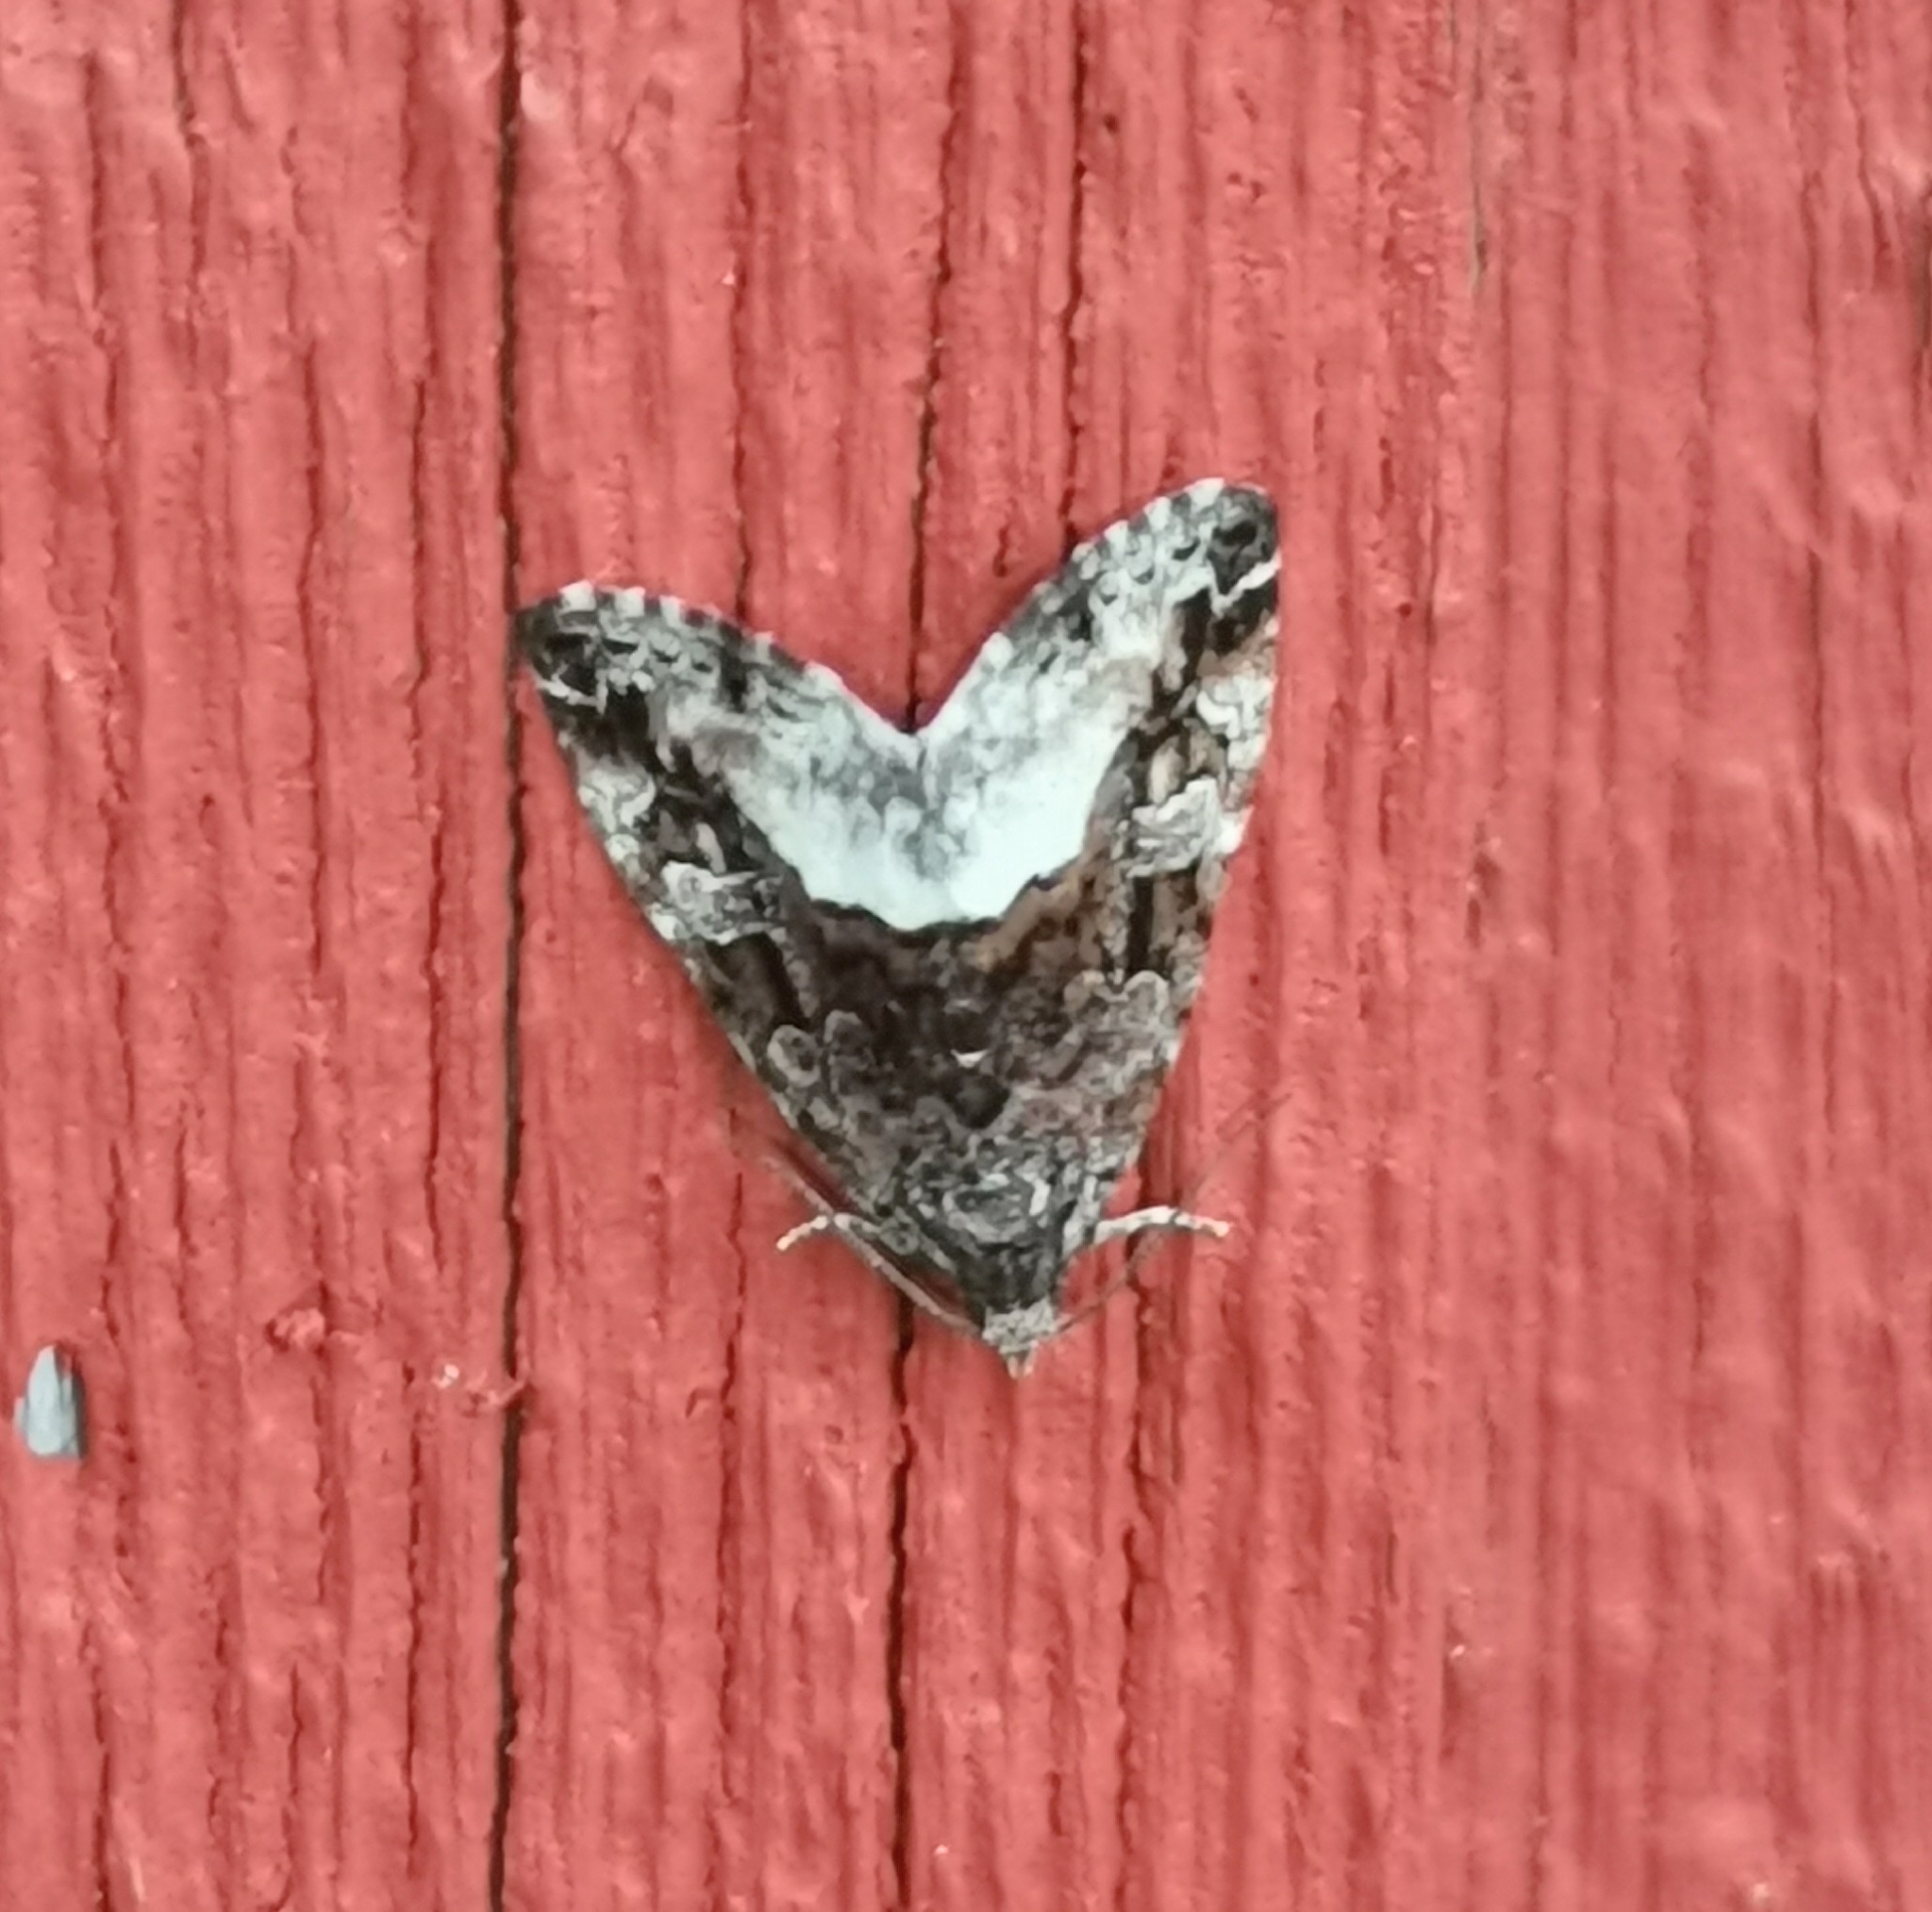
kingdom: Animalia
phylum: Arthropoda
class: Insecta
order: Lepidoptera
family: Noctuidae
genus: Deltote
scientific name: Deltote pygarga
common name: Marbled white spot
